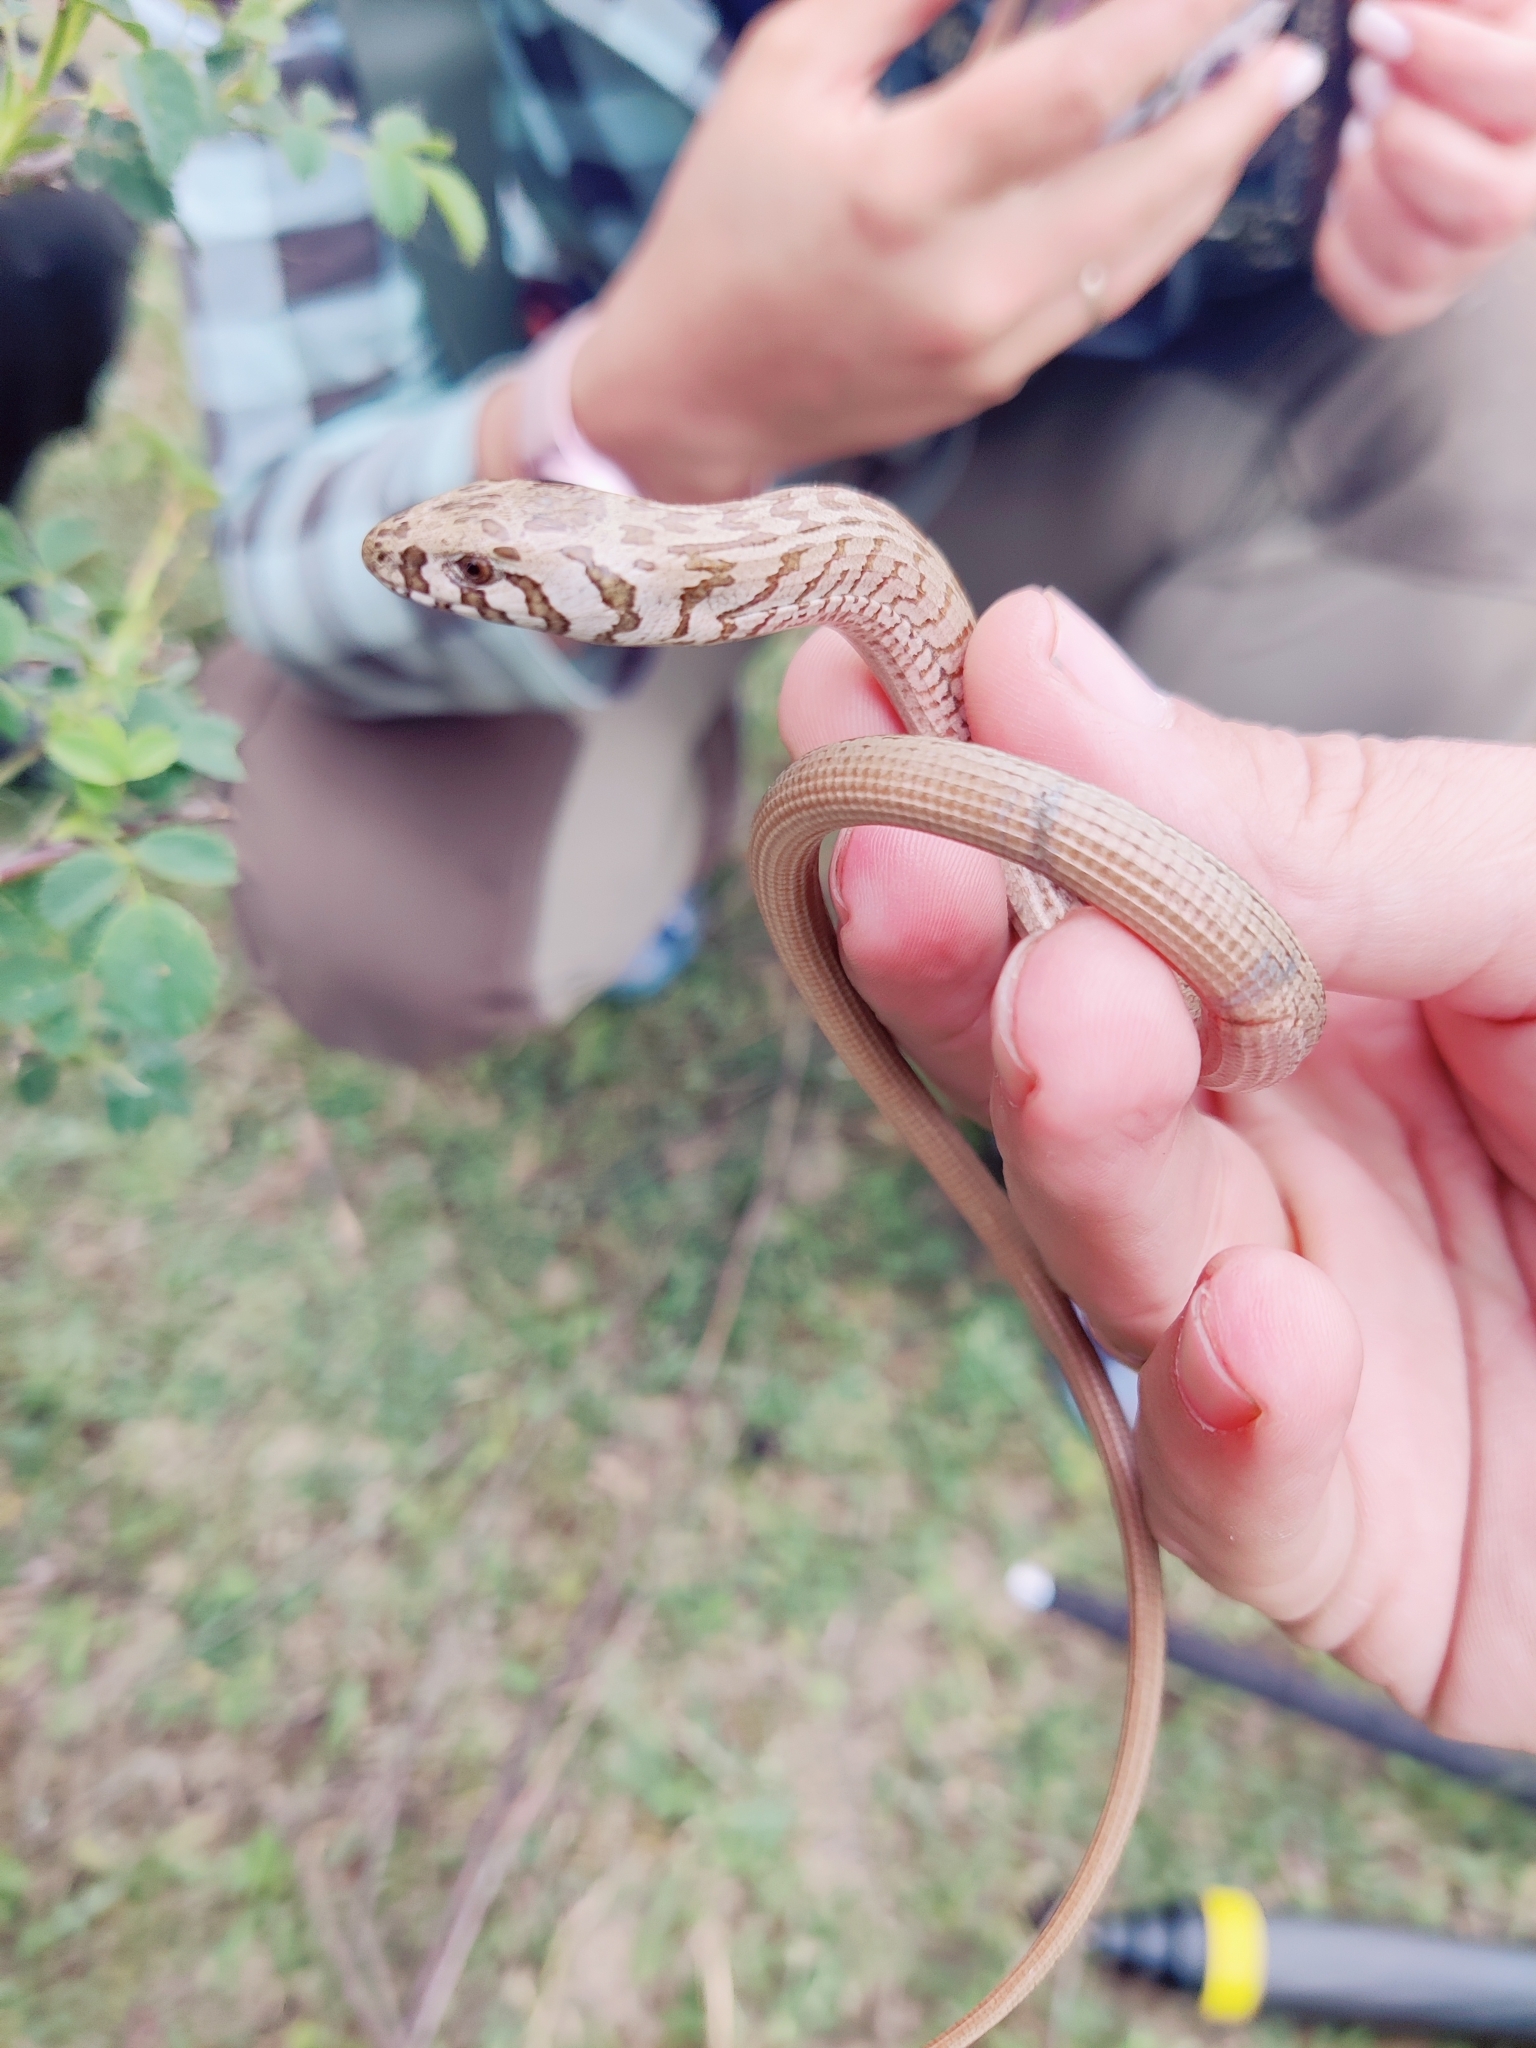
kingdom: Animalia
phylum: Chordata
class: Squamata
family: Anguidae
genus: Pseudopus
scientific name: Pseudopus apodus
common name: European glass lizard
